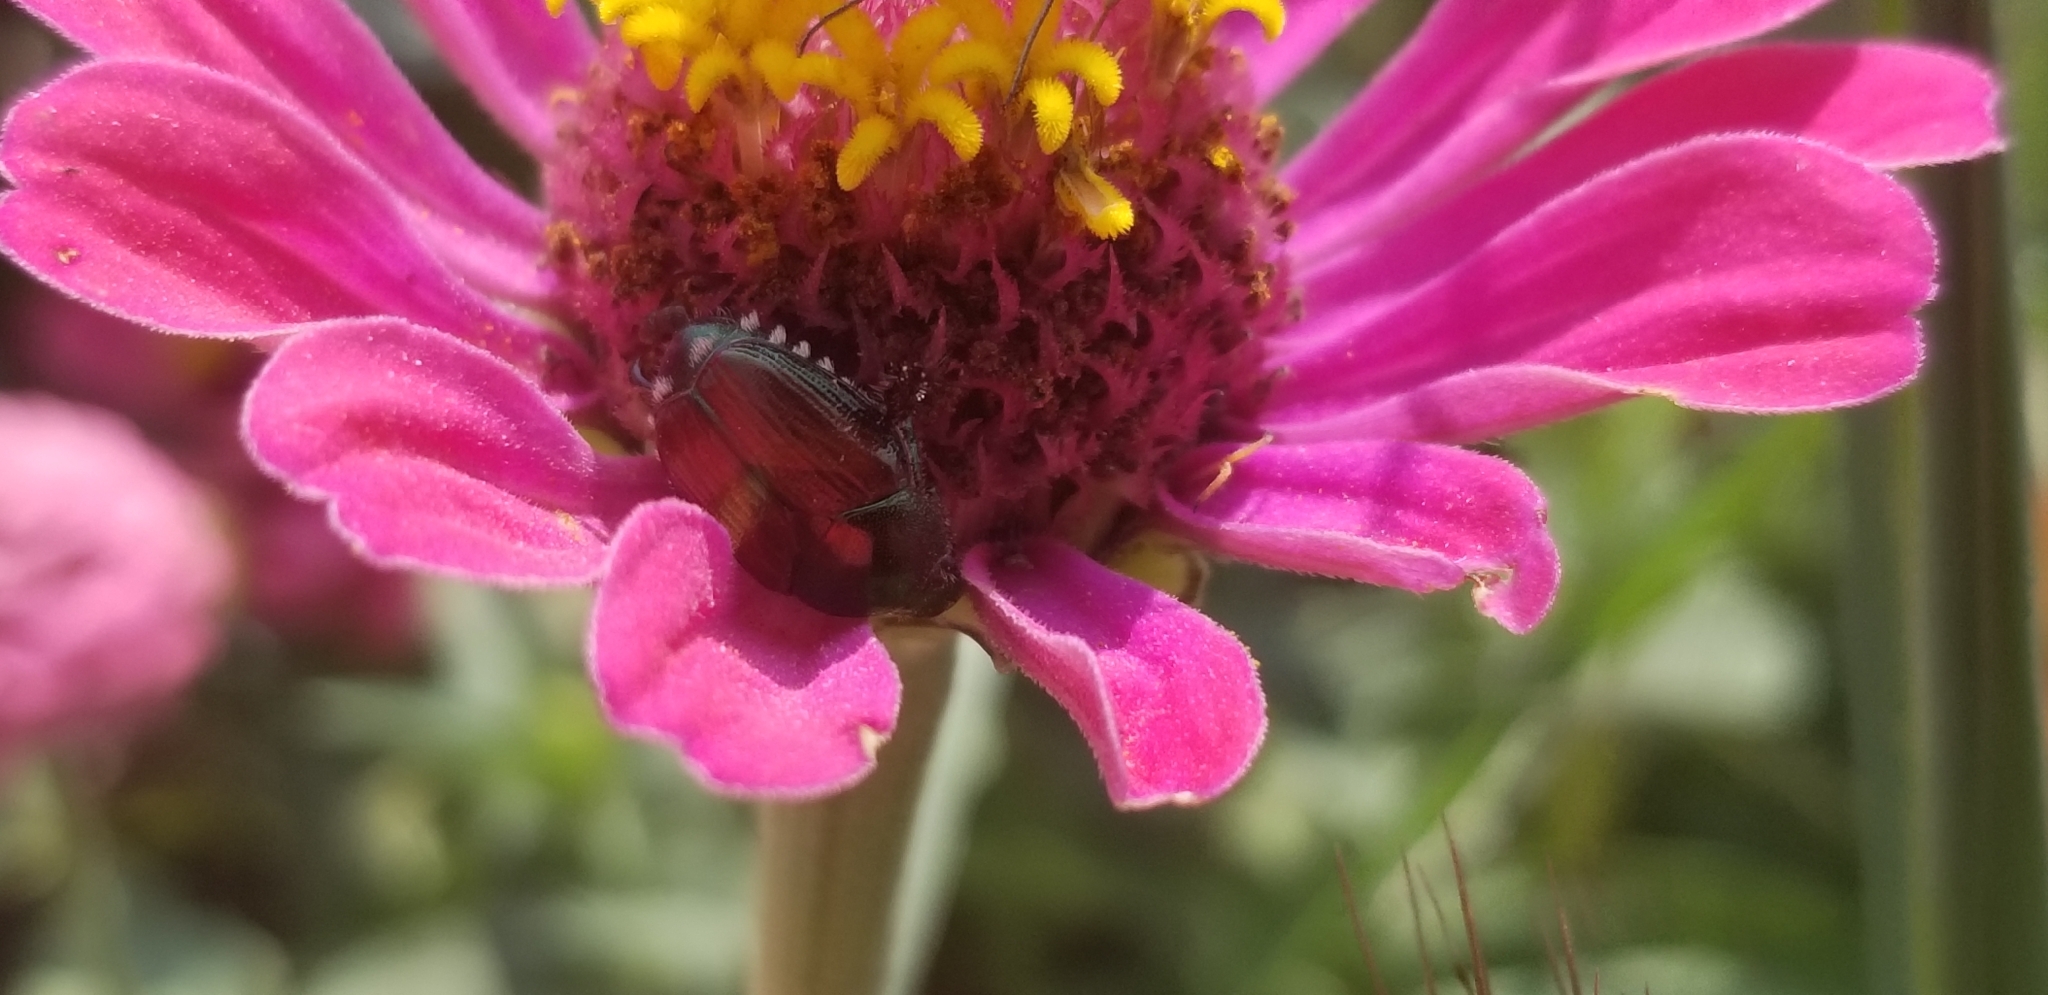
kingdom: Animalia
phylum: Arthropoda
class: Insecta
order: Coleoptera
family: Scarabaeidae
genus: Popillia
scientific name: Popillia japonica
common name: Japanese beetle
